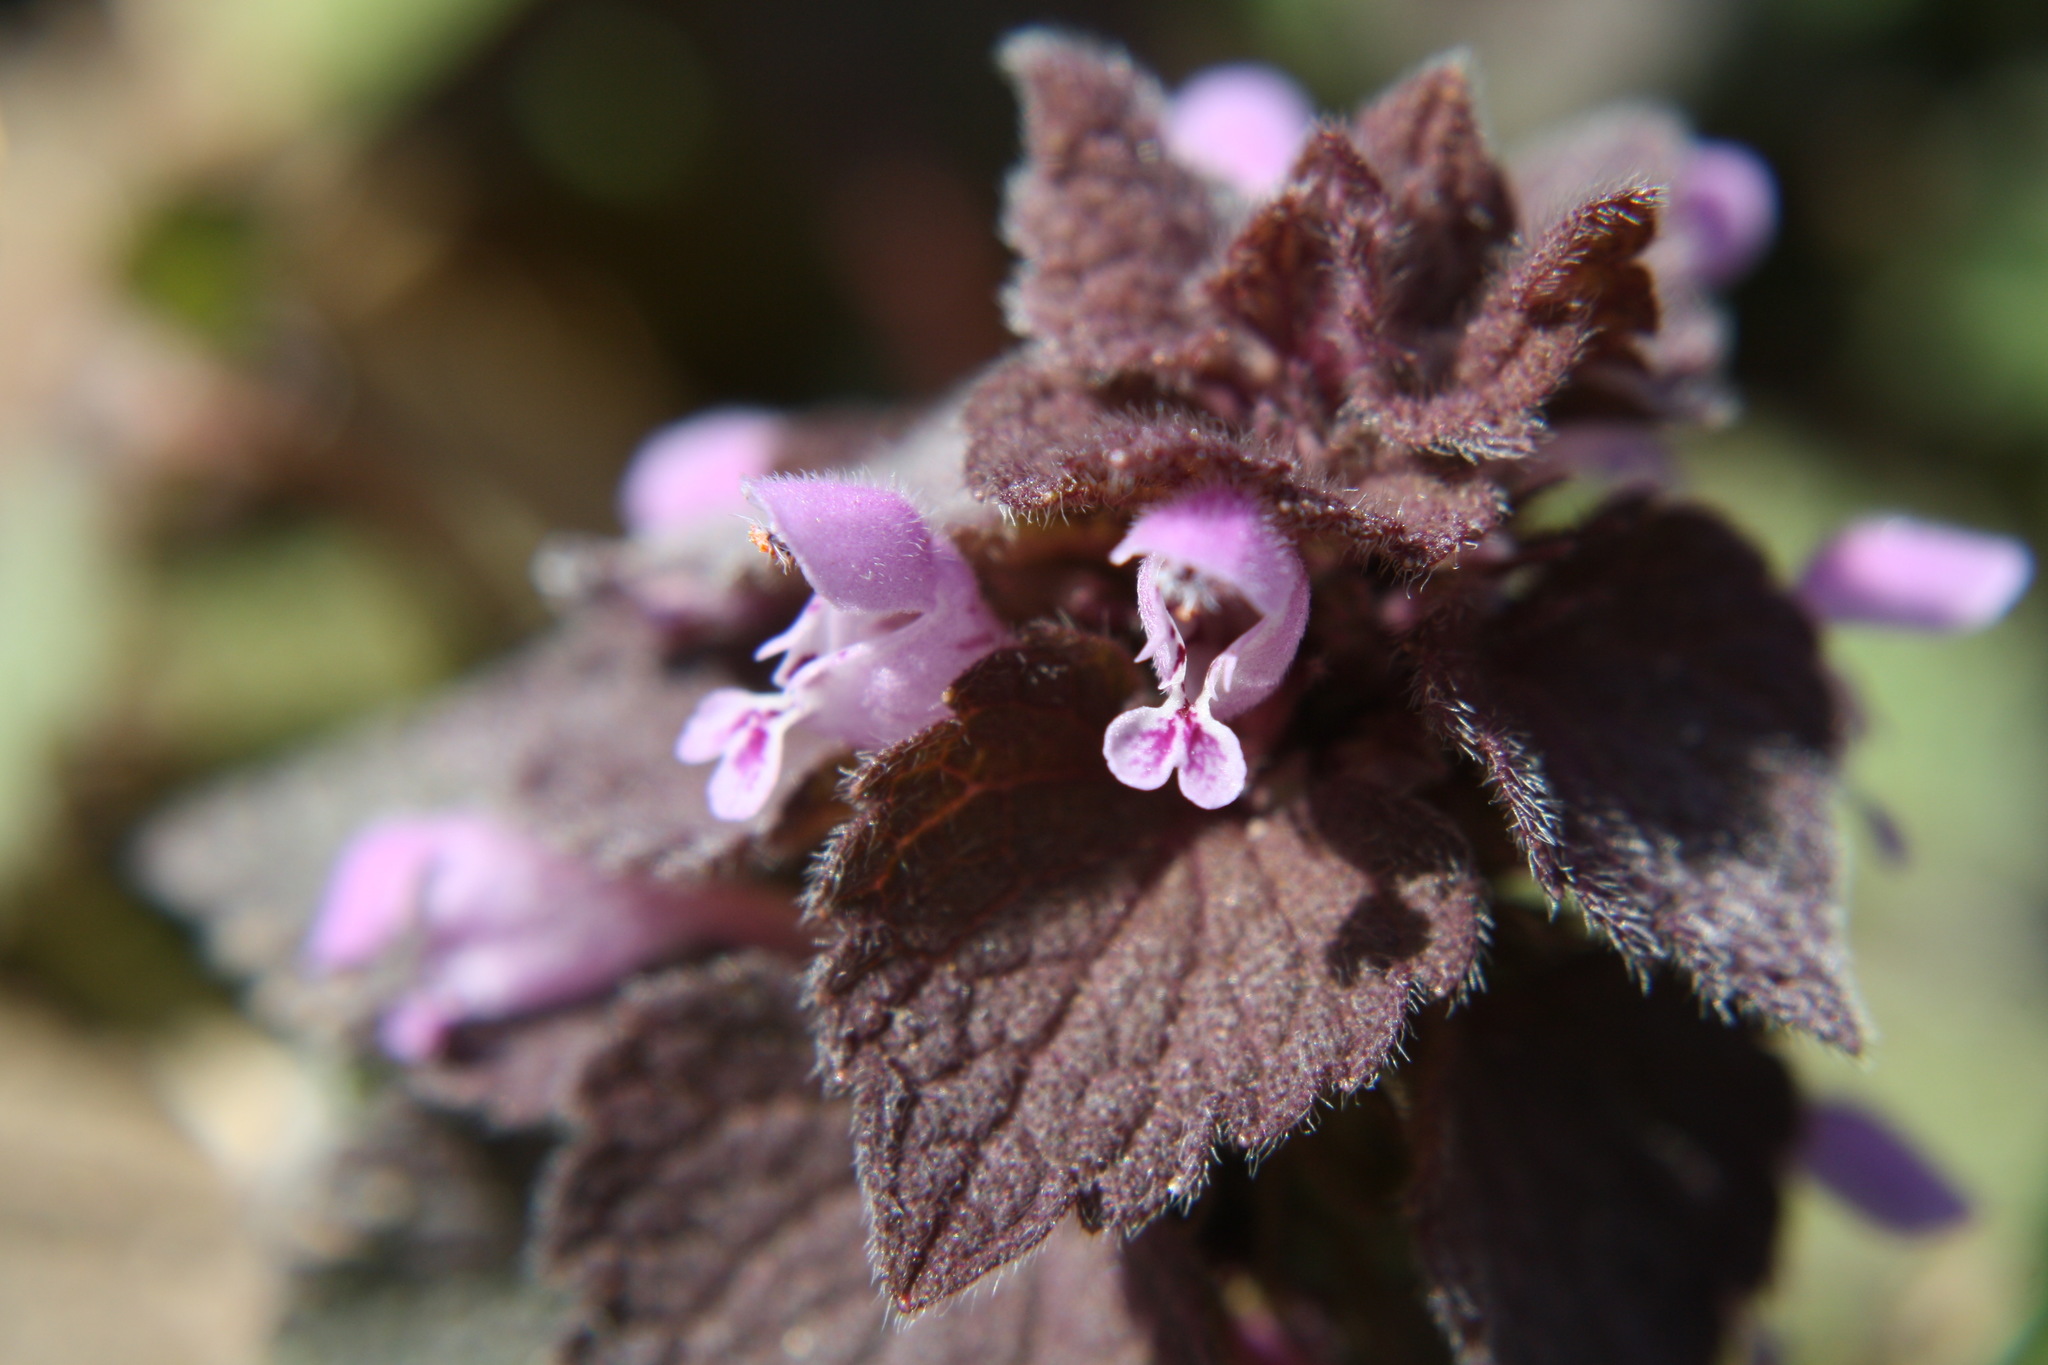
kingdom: Plantae
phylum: Tracheophyta
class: Magnoliopsida
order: Lamiales
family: Lamiaceae
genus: Lamium
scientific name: Lamium purpureum
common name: Red dead-nettle
